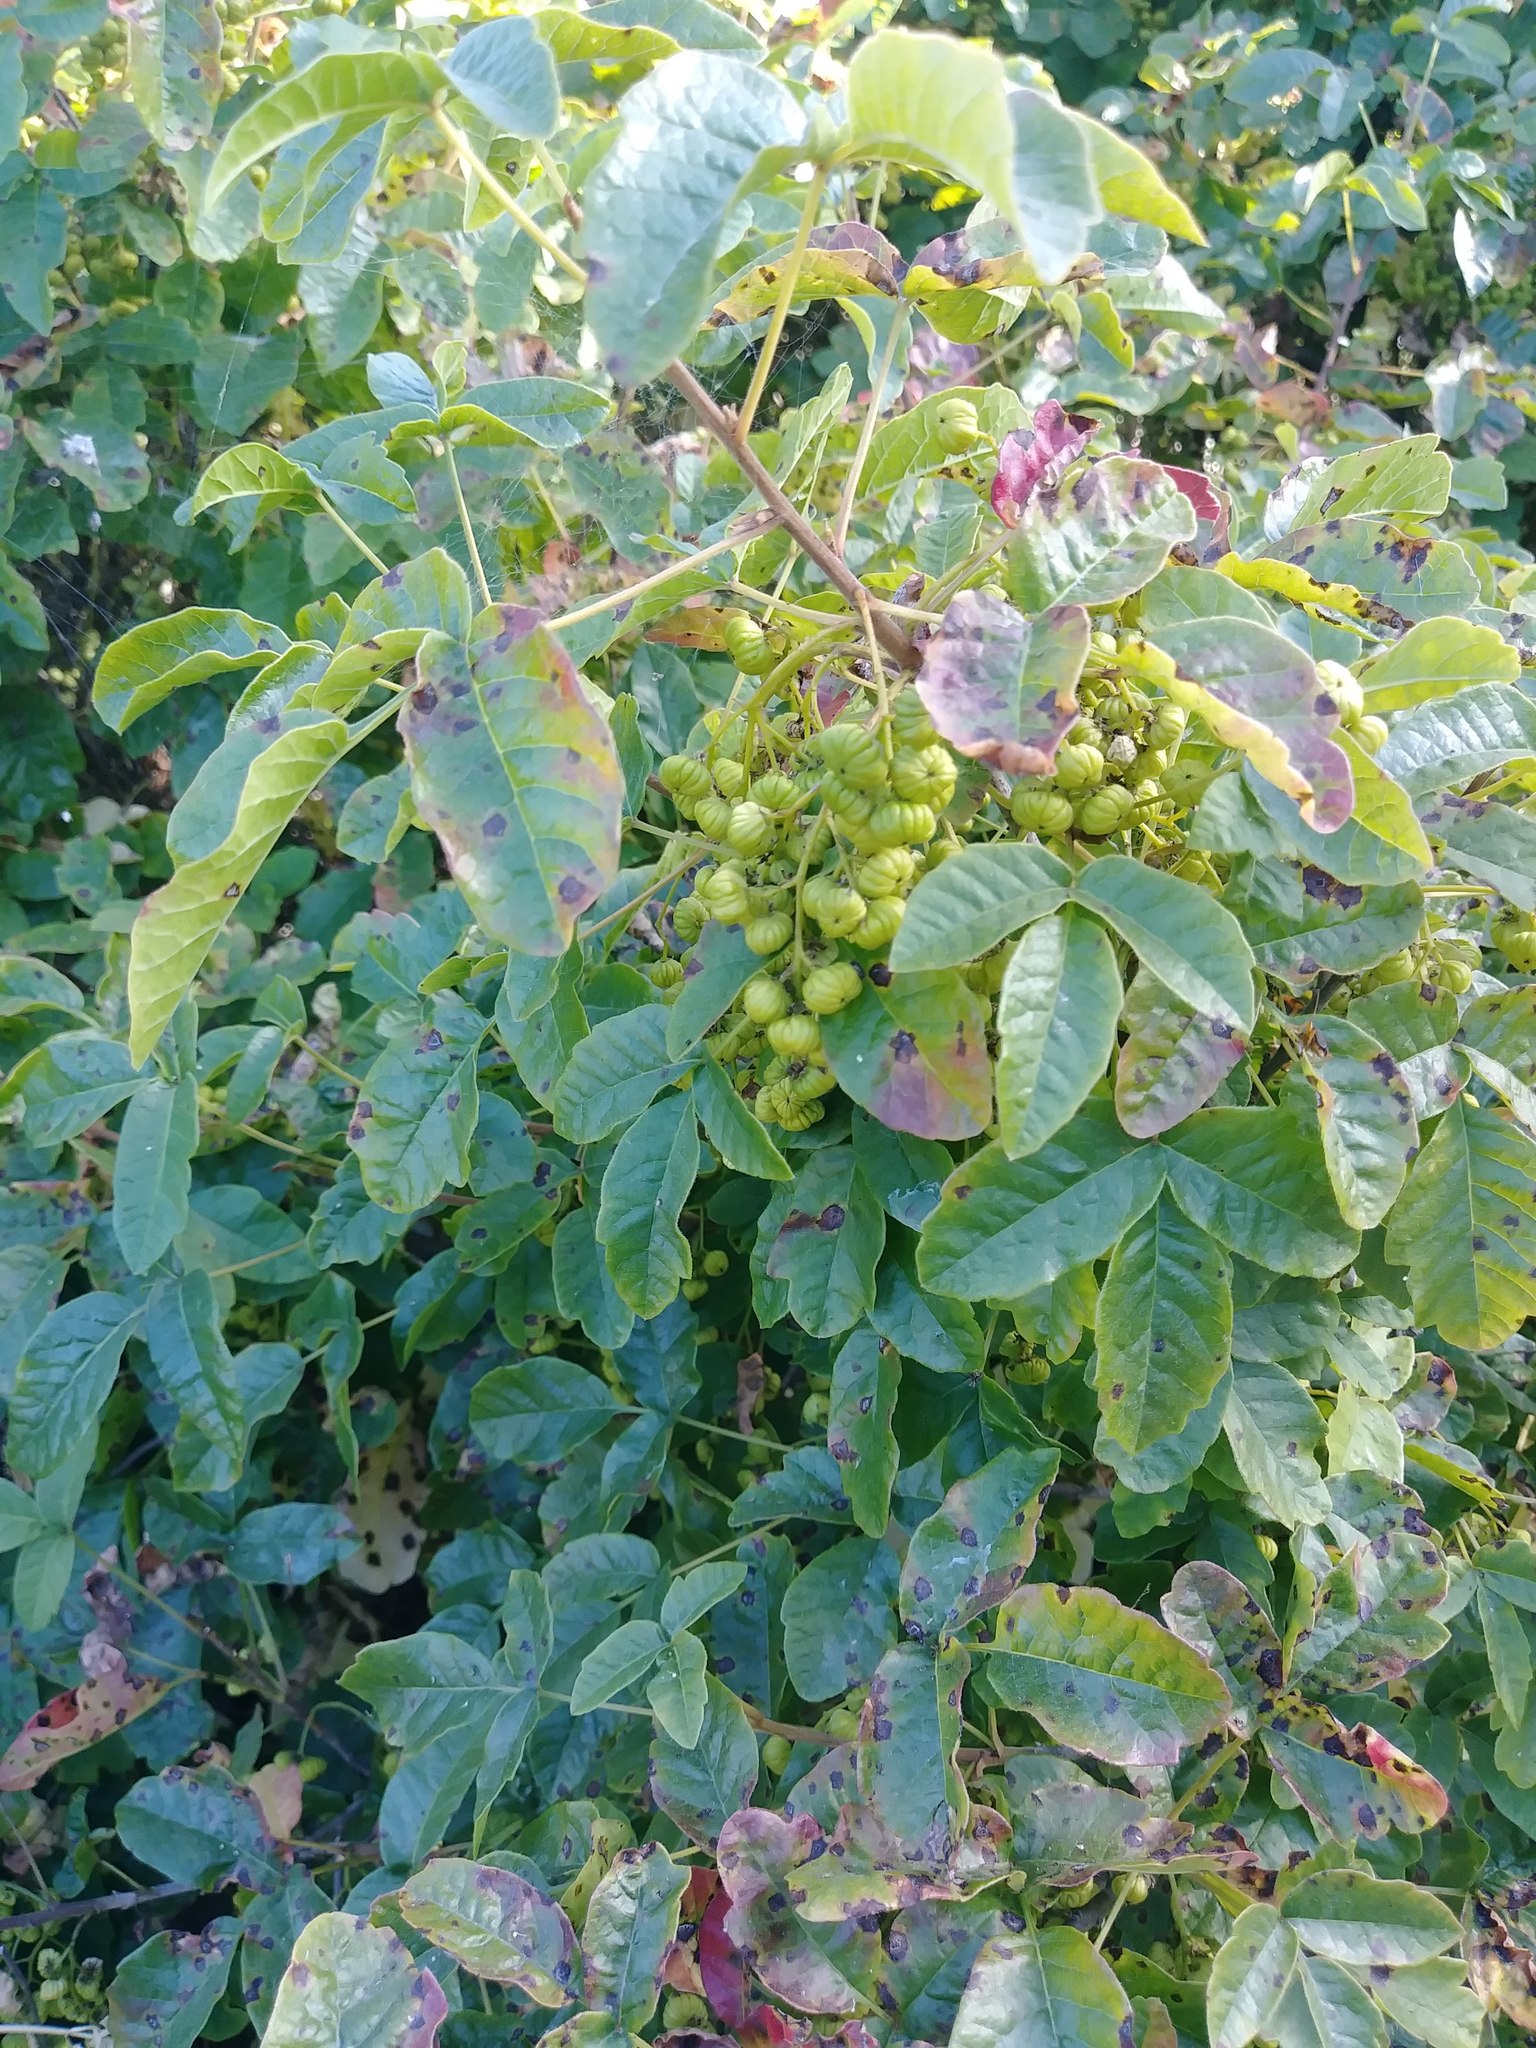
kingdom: Plantae
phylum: Tracheophyta
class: Magnoliopsida
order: Sapindales
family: Anacardiaceae
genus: Toxicodendron
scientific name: Toxicodendron diversilobum
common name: Pacific poison-oak
